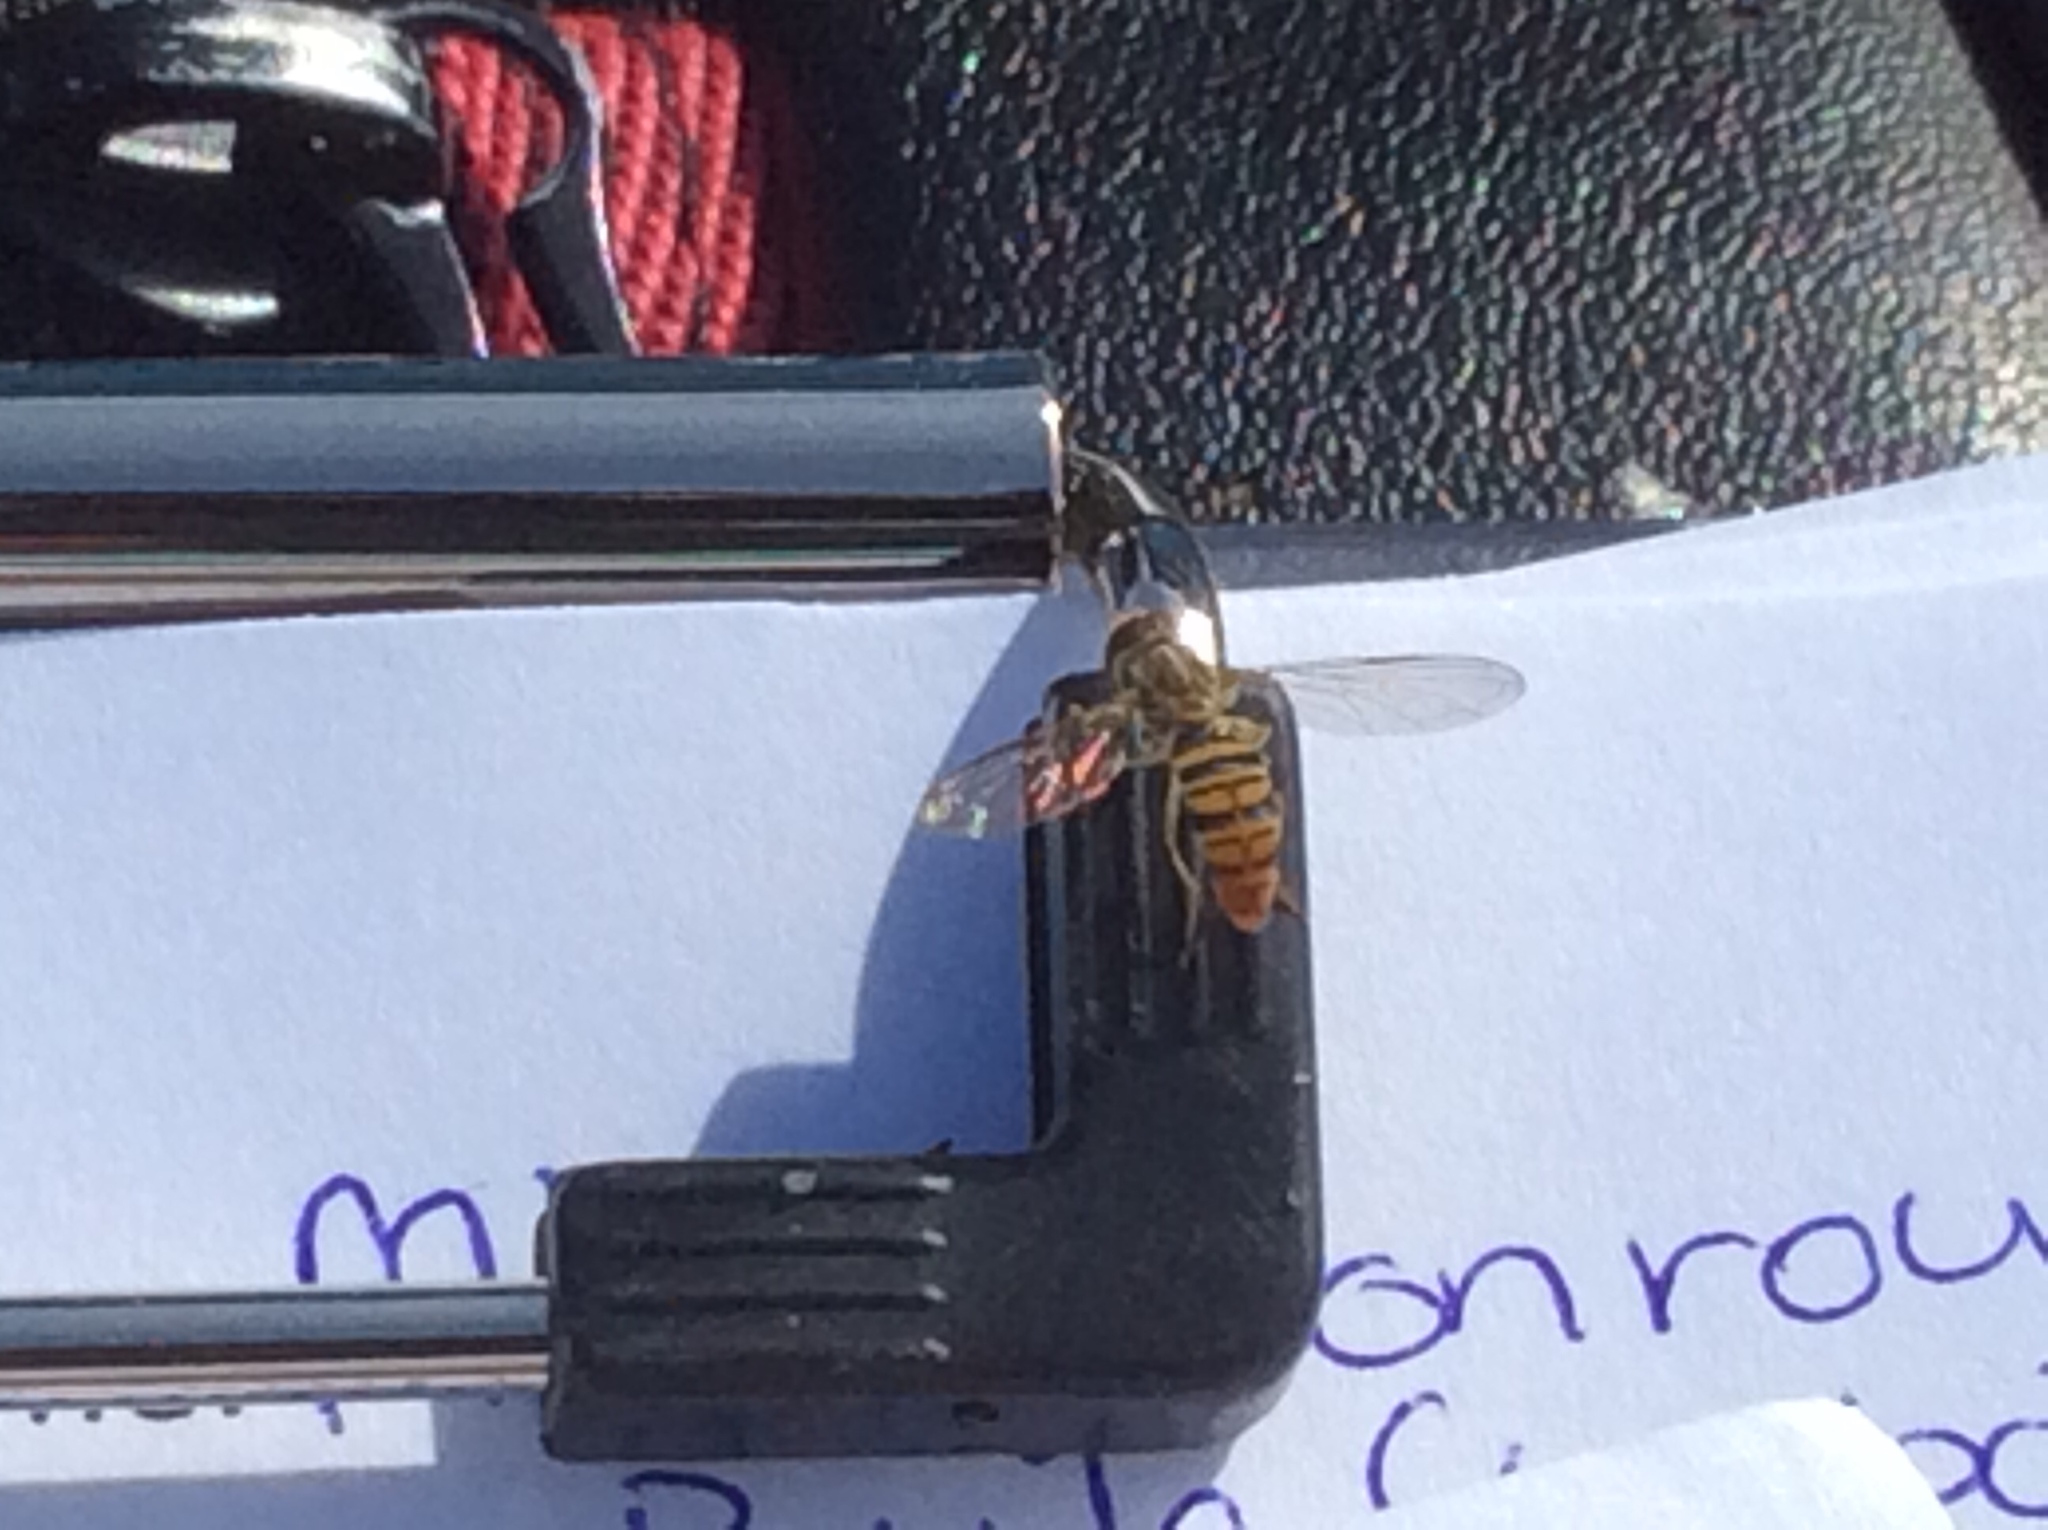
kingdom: Animalia
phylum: Arthropoda
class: Insecta
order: Diptera
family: Syrphidae
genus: Toxomerus
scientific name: Toxomerus politus
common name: Maize calligrapher
